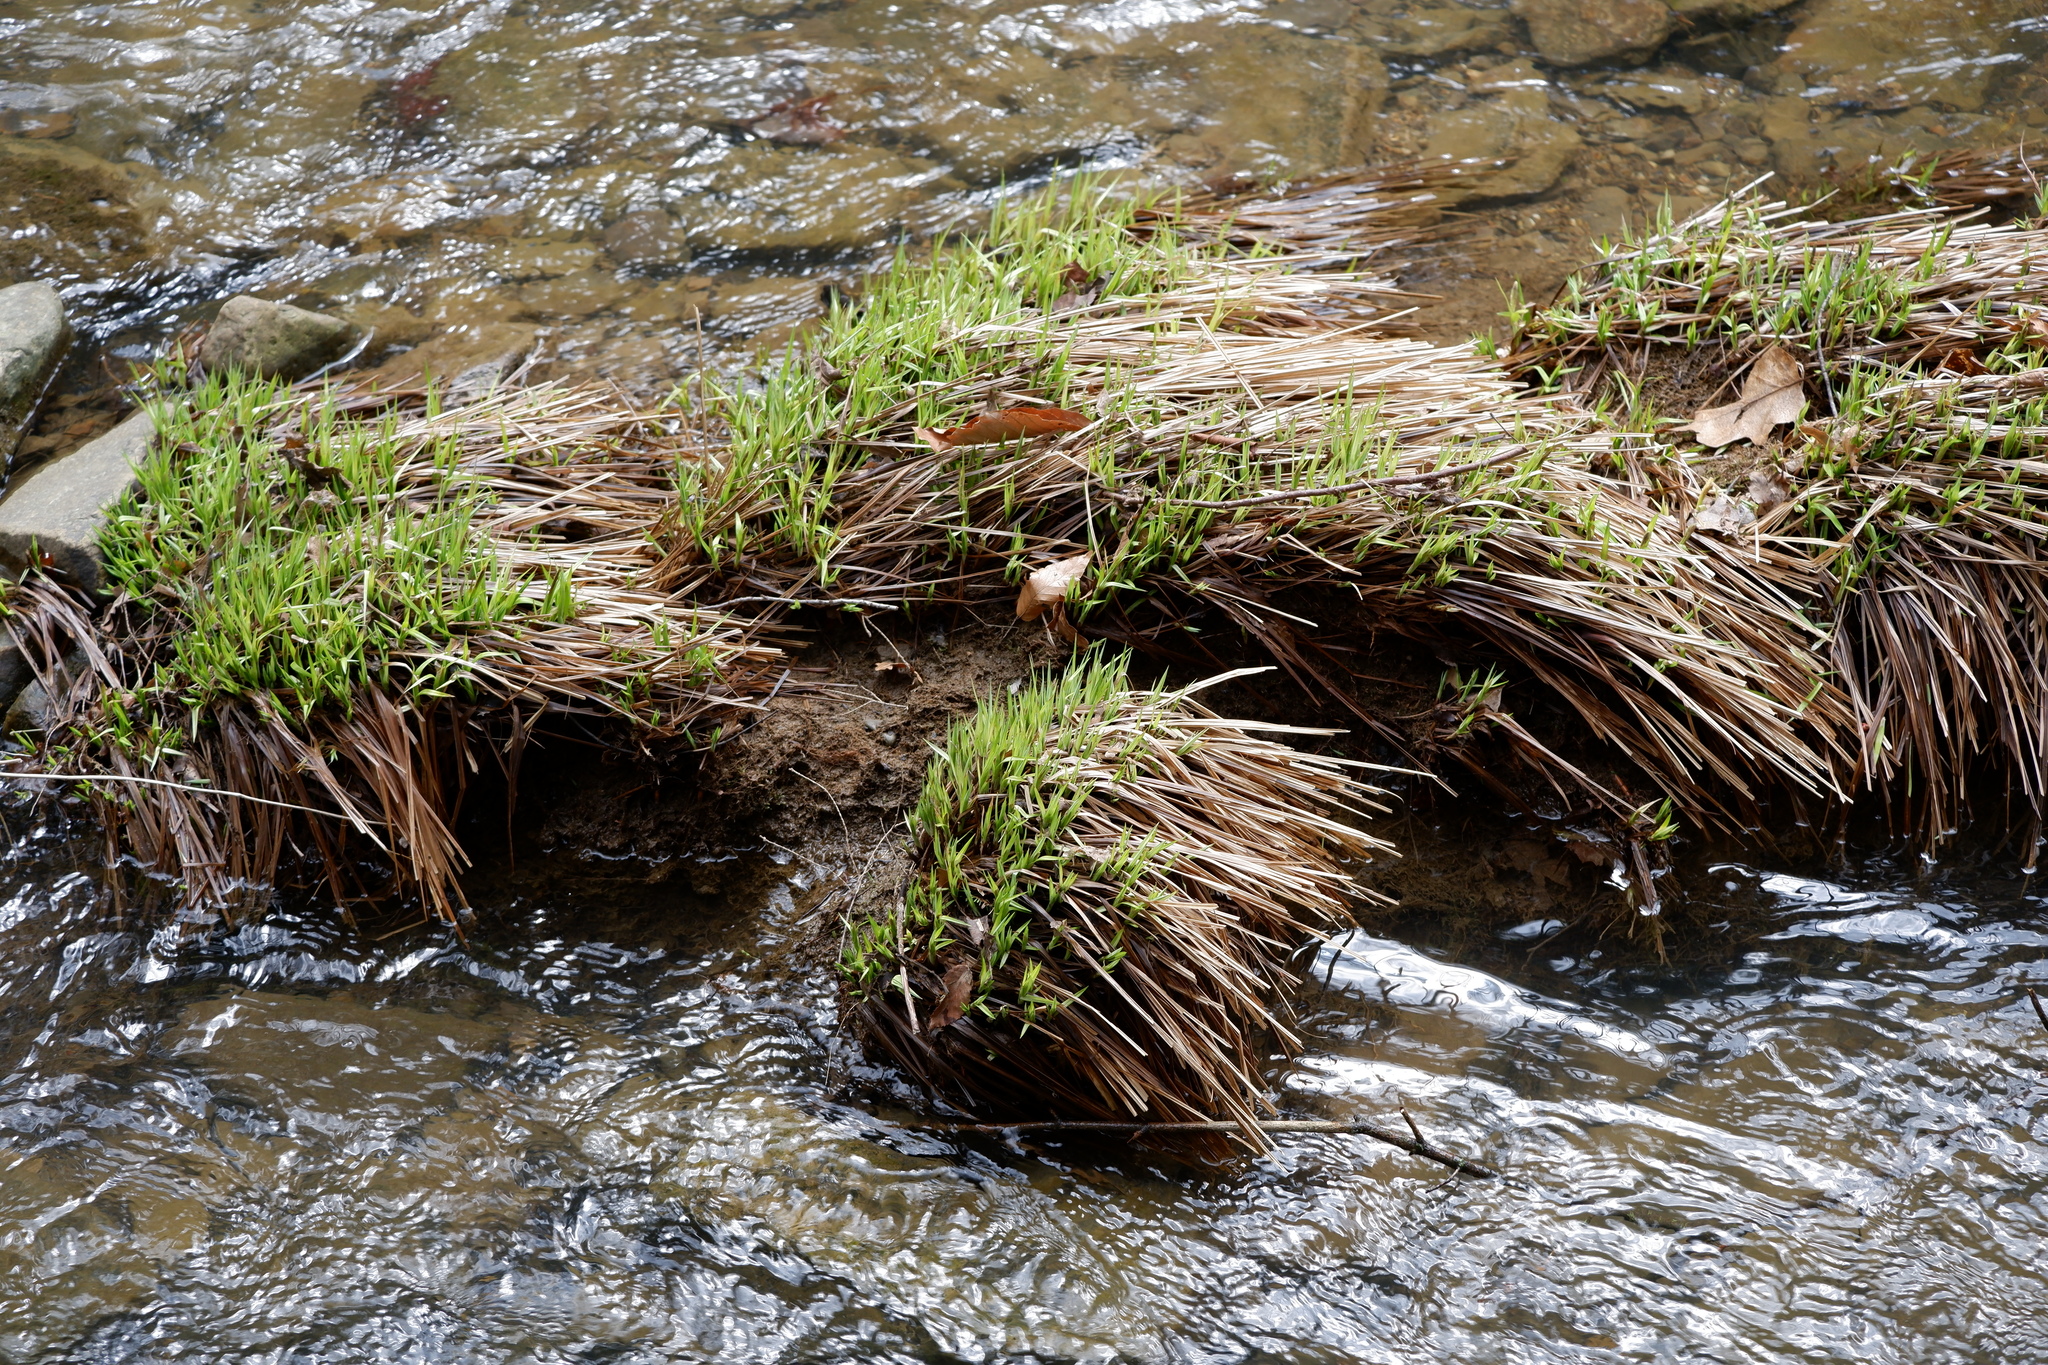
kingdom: Plantae
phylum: Tracheophyta
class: Liliopsida
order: Poales
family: Cyperaceae
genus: Carex
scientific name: Carex torta
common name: Twisted sedge
